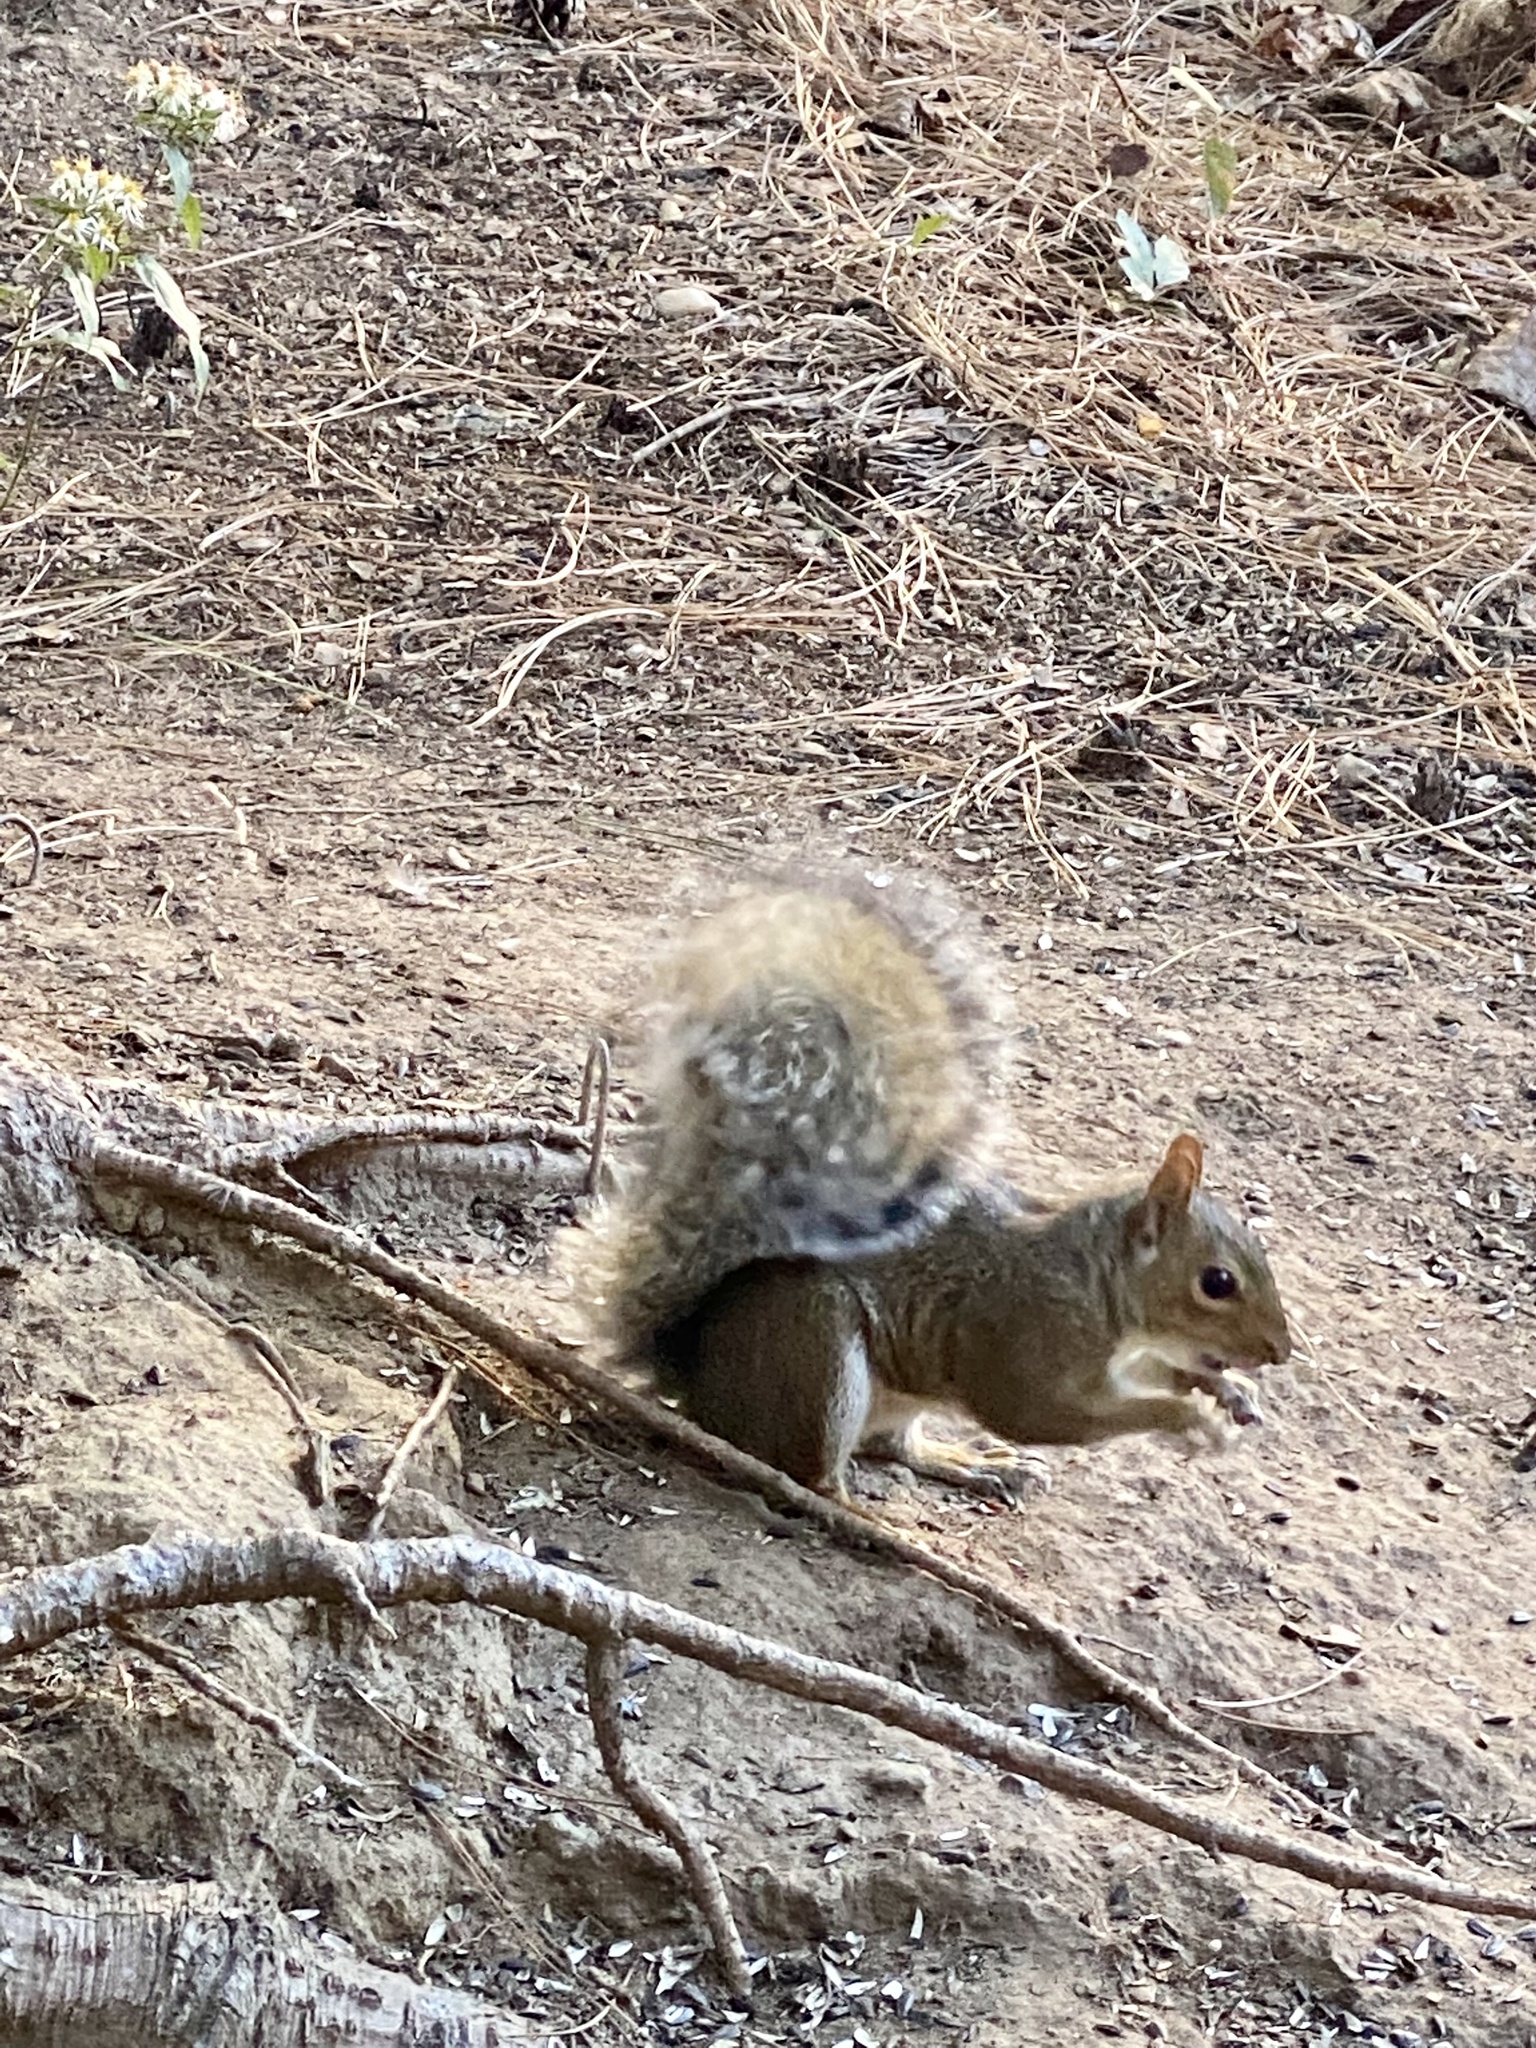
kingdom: Animalia
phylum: Chordata
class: Mammalia
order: Rodentia
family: Sciuridae
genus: Sciurus
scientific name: Sciurus carolinensis
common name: Eastern gray squirrel
